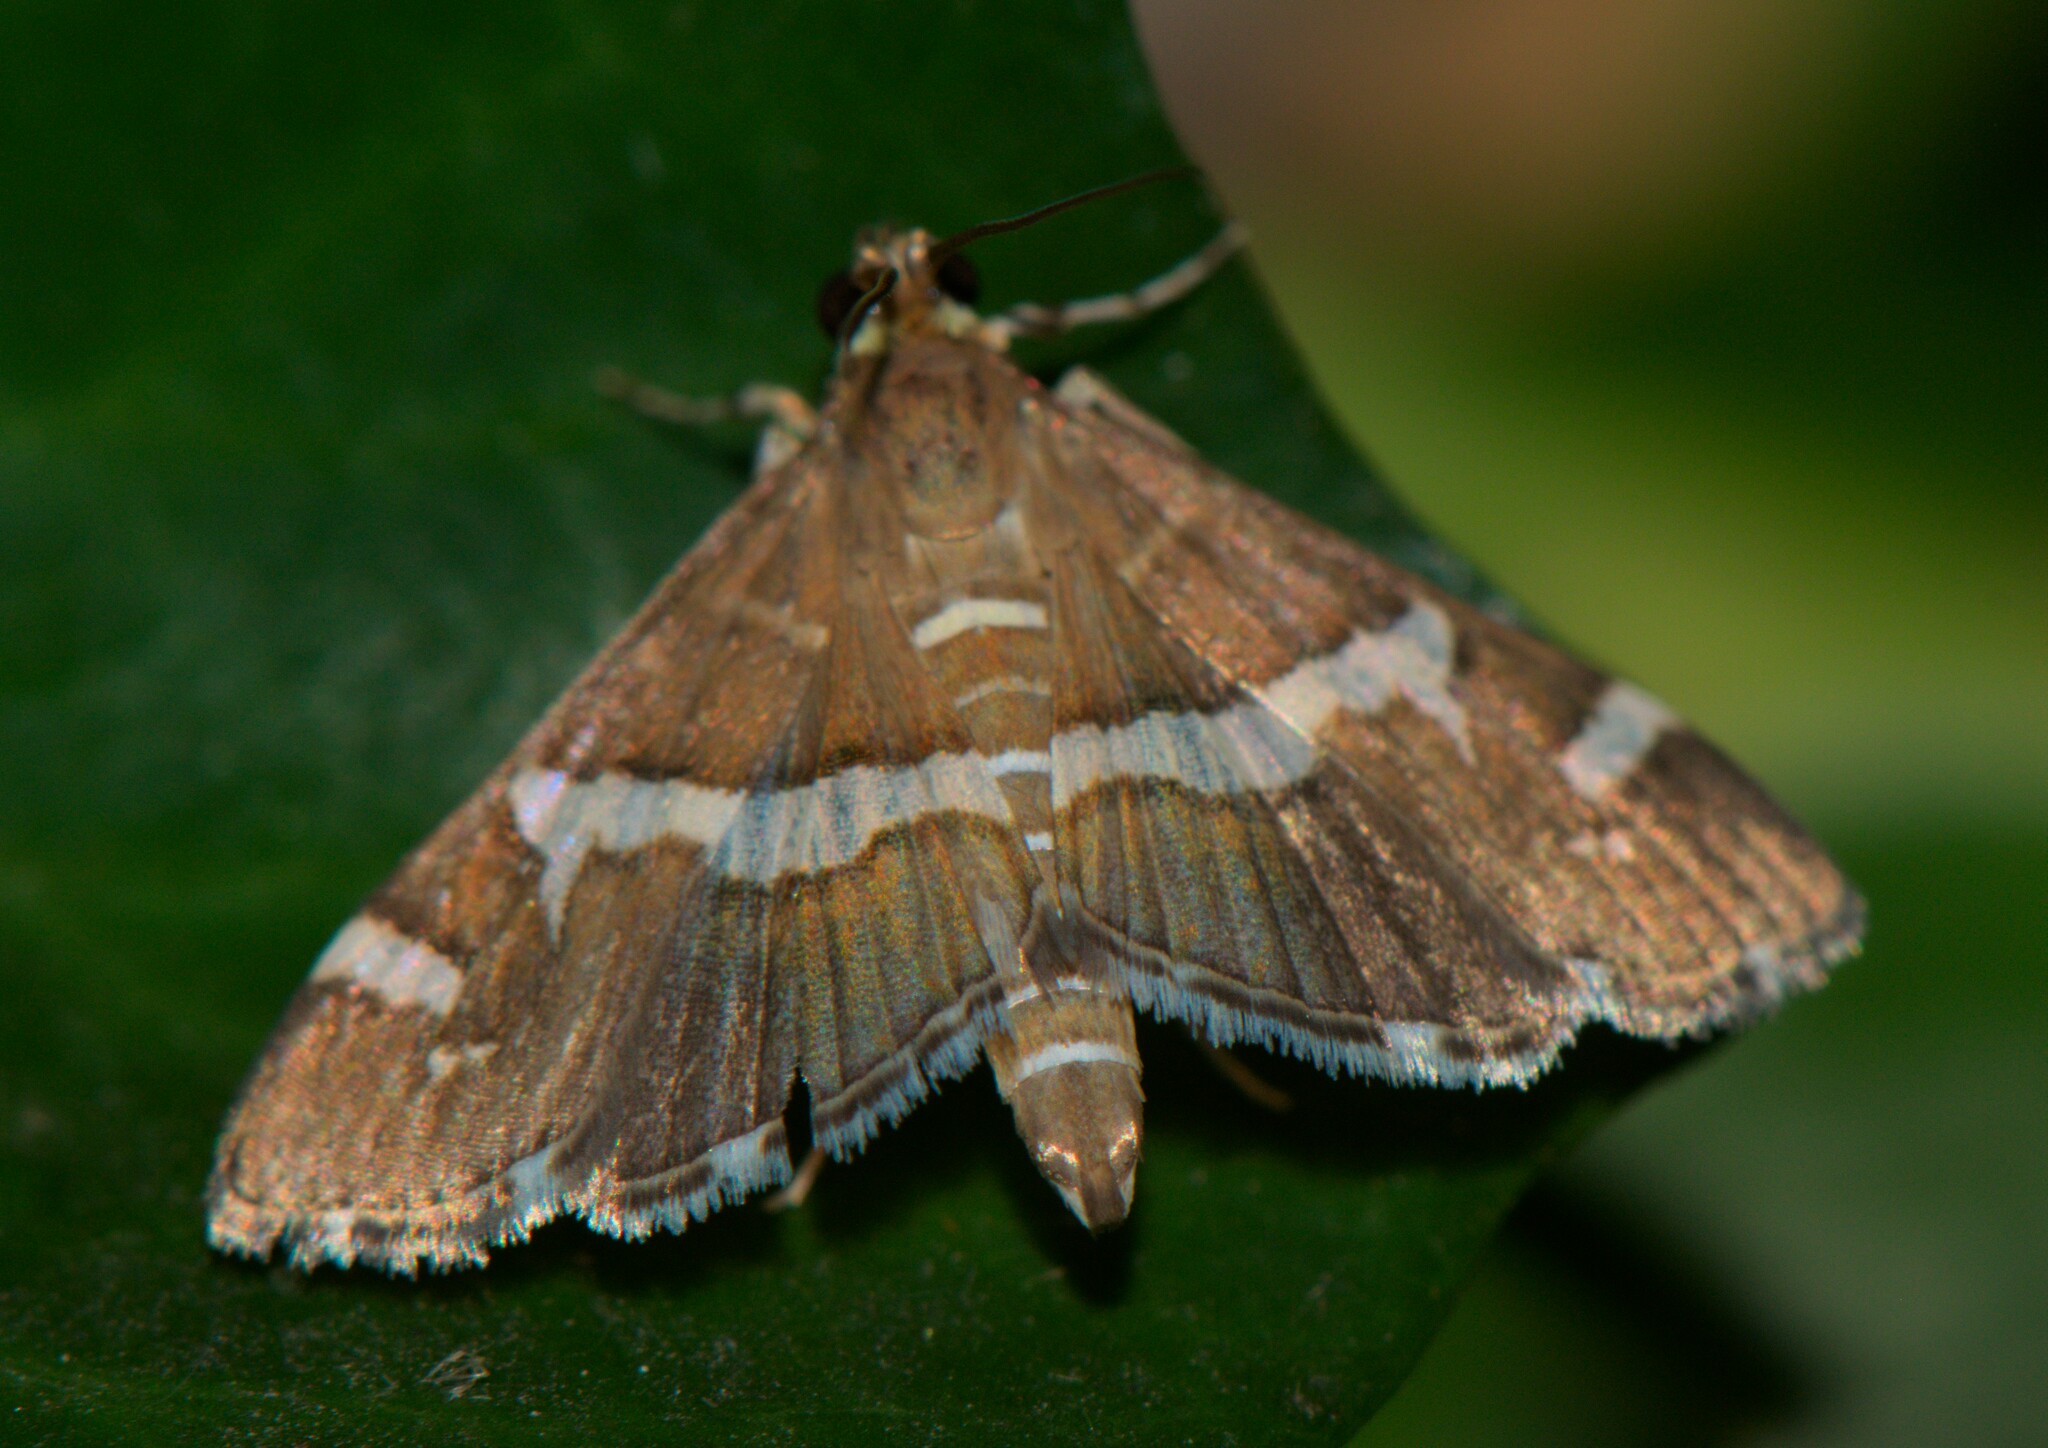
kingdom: Animalia
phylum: Arthropoda
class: Insecta
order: Lepidoptera
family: Crambidae
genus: Spoladea
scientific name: Spoladea recurvalis
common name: Beet webworm moth
